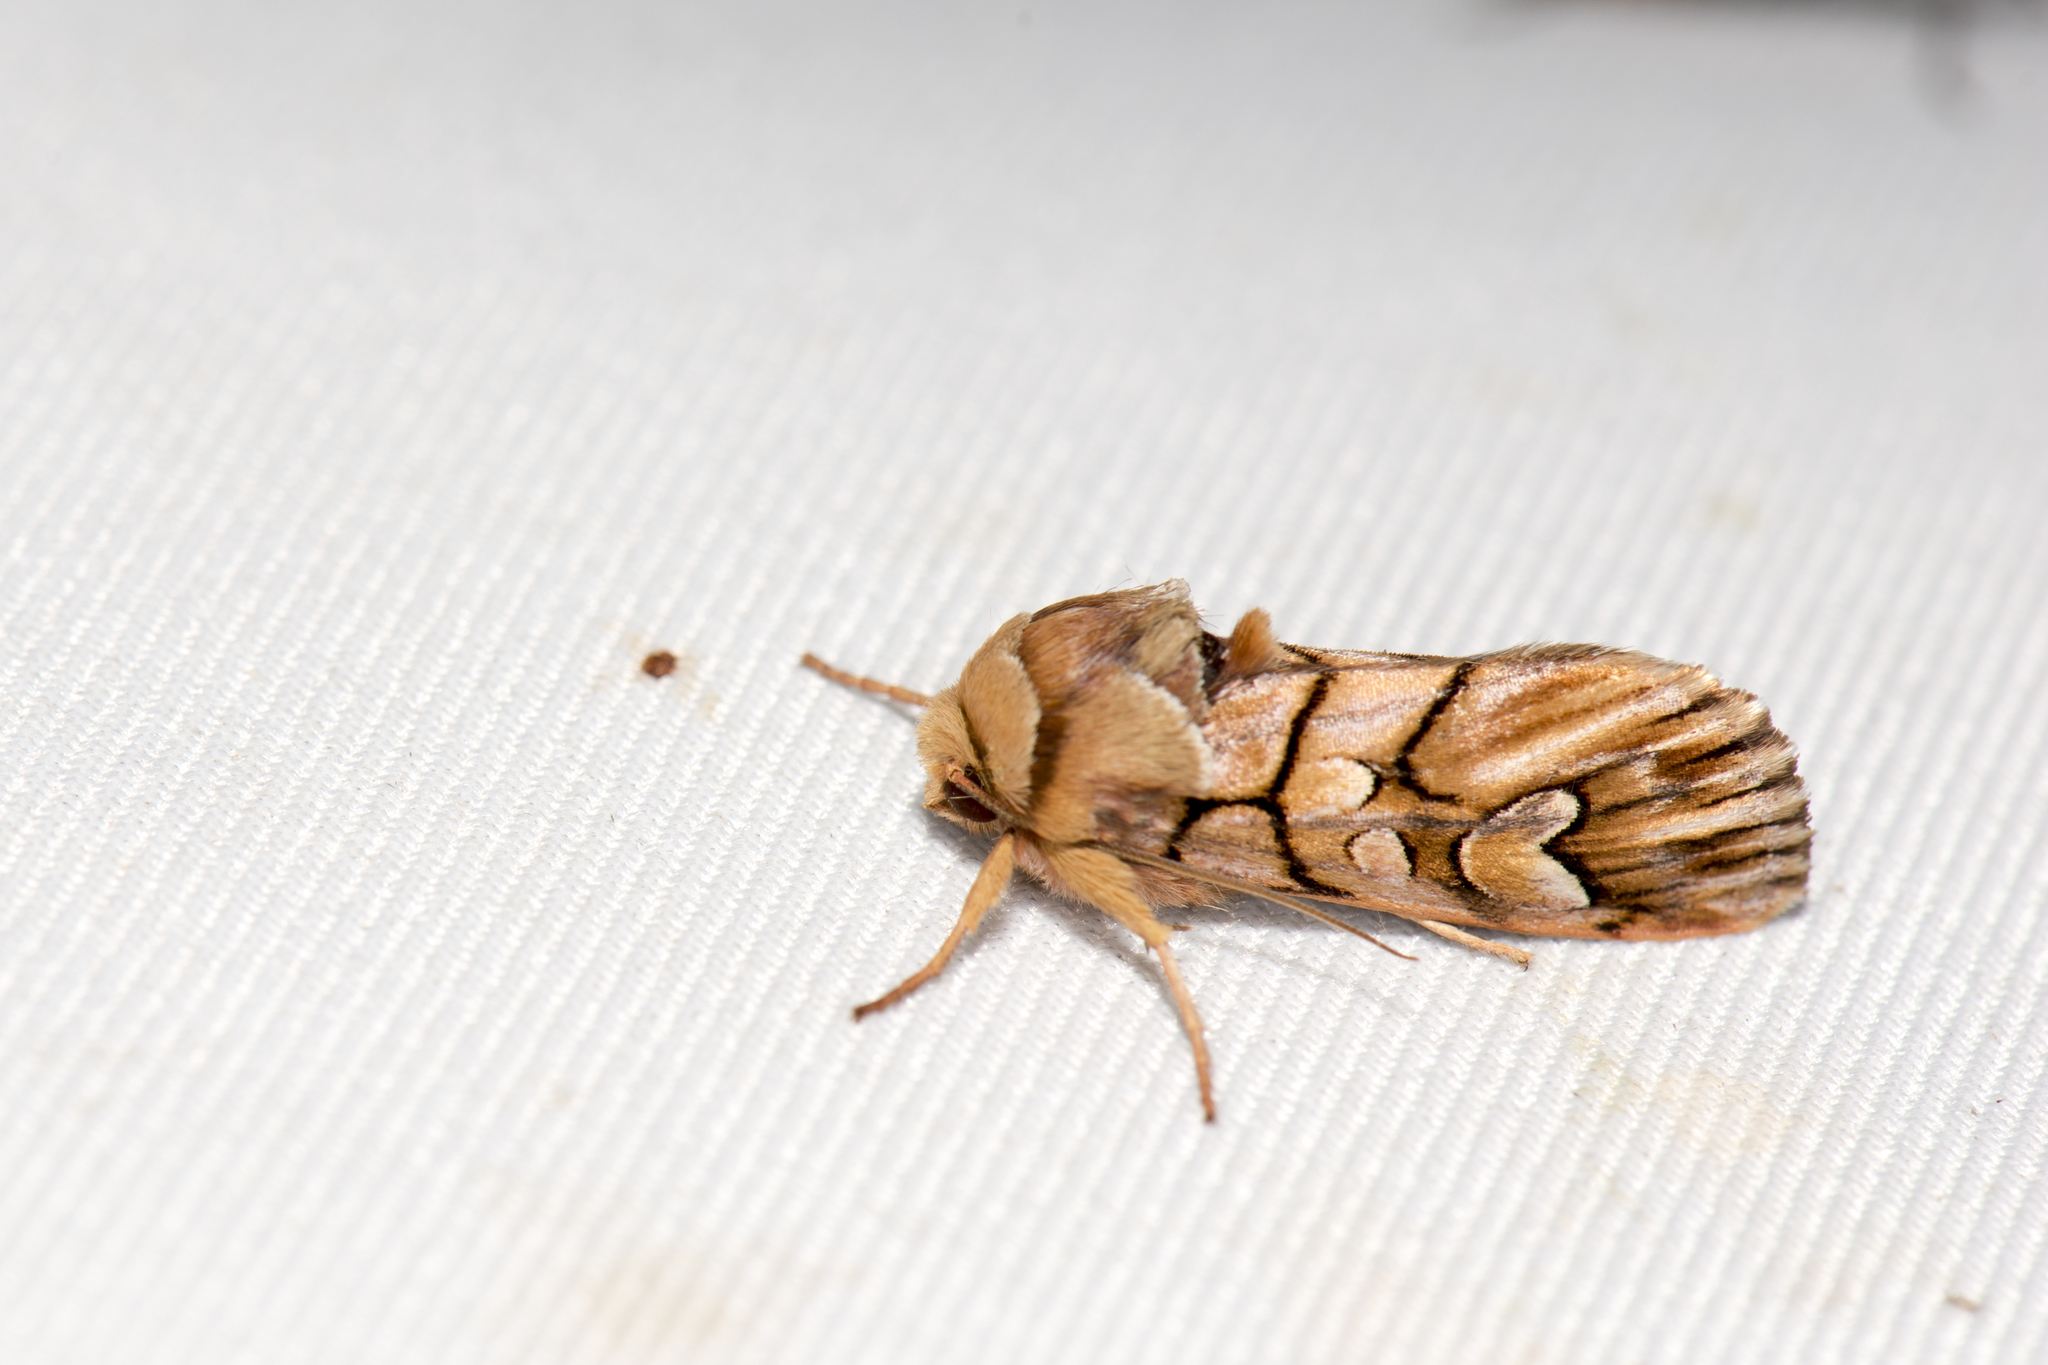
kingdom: Animalia
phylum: Arthropoda
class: Insecta
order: Lepidoptera
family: Noctuidae
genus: Panolis
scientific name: Panolis variegatoides
